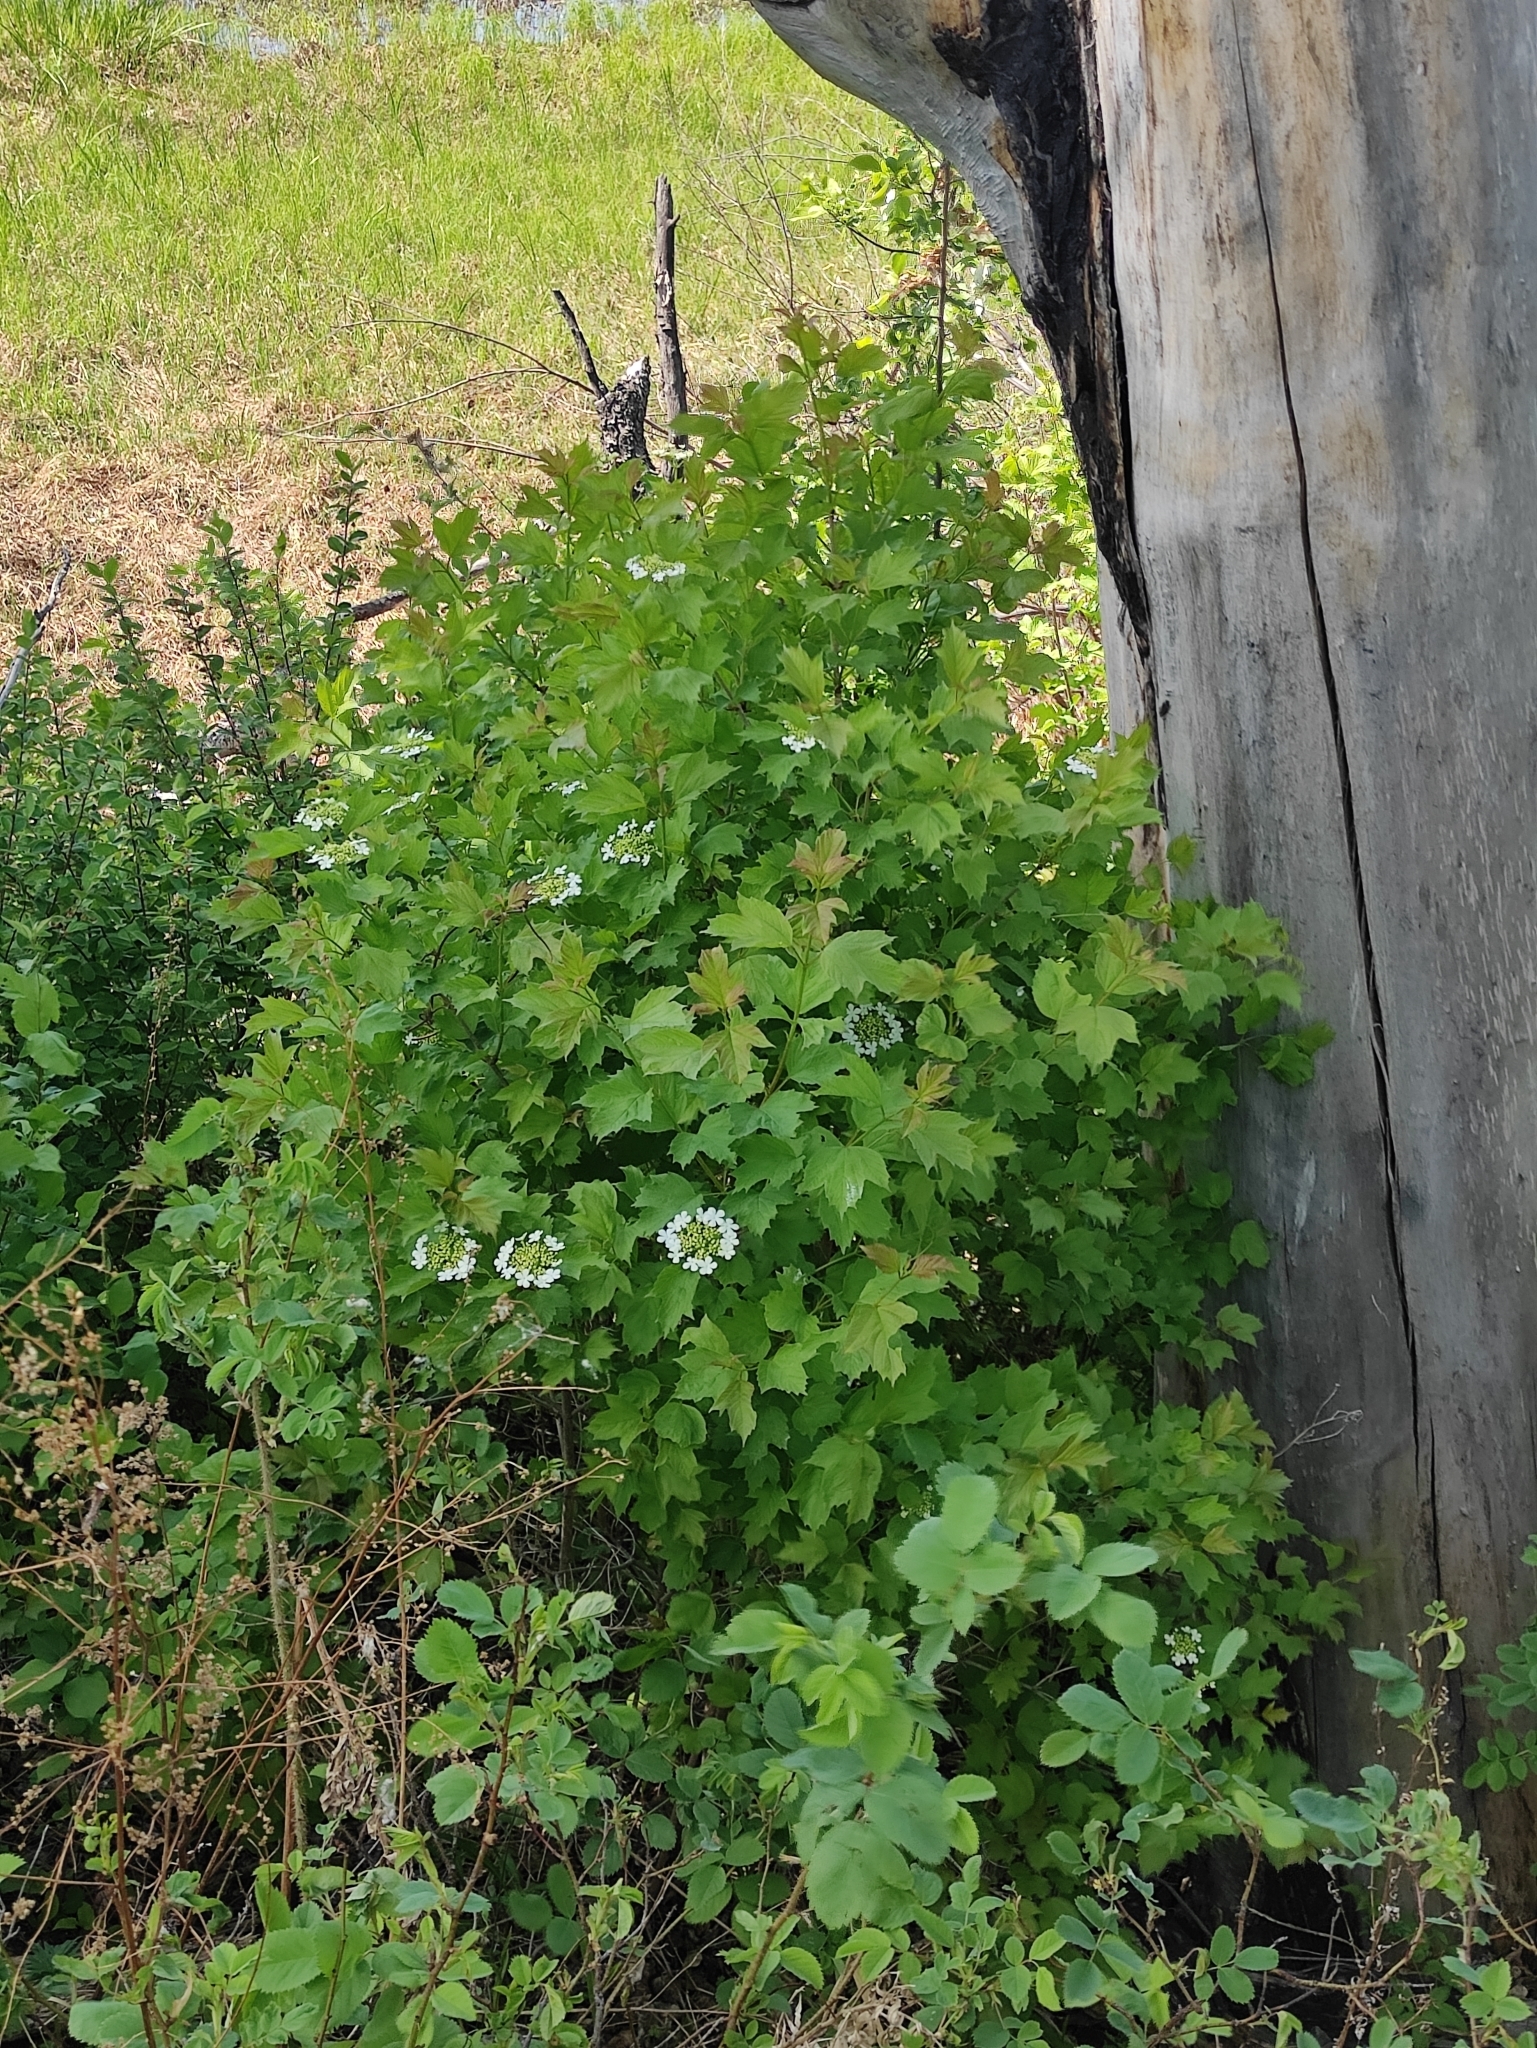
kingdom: Plantae
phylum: Tracheophyta
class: Magnoliopsida
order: Dipsacales
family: Viburnaceae
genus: Viburnum
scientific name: Viburnum opulus
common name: Guelder-rose
